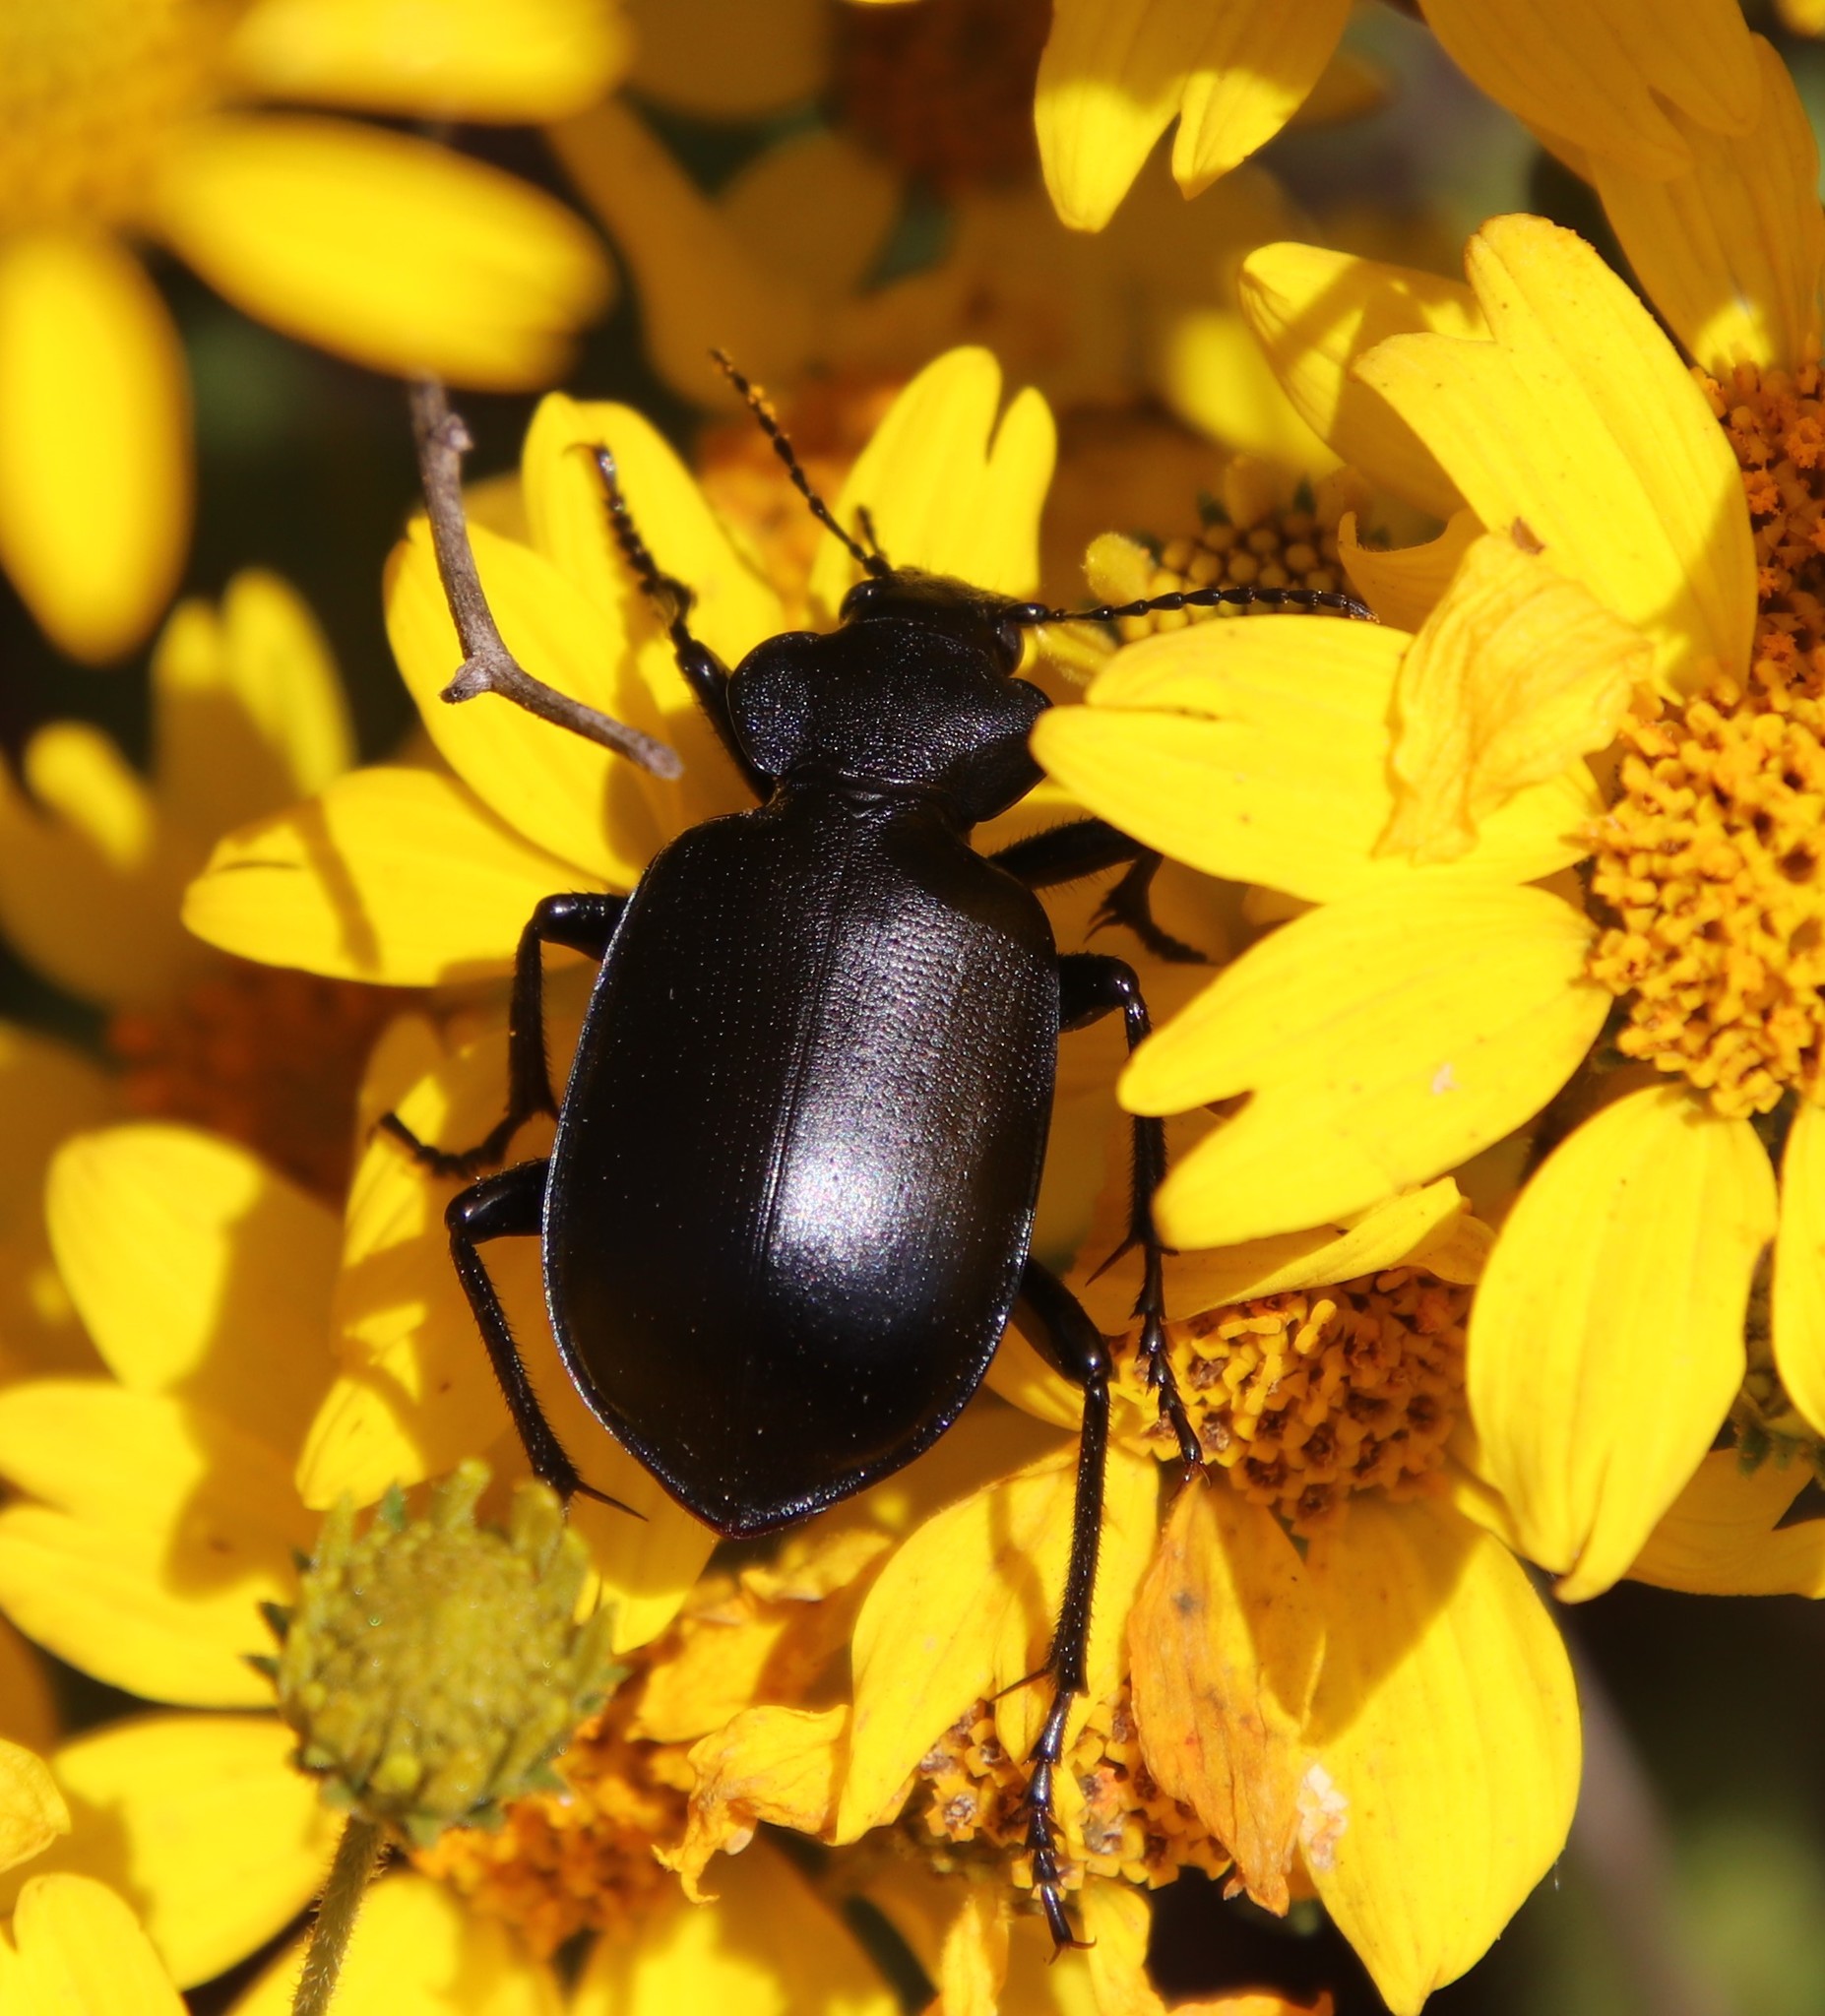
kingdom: Animalia
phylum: Arthropoda
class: Insecta
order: Coleoptera
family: Carabidae
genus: Calosoma
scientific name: Calosoma semilaeve
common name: Black calosoma beetle
